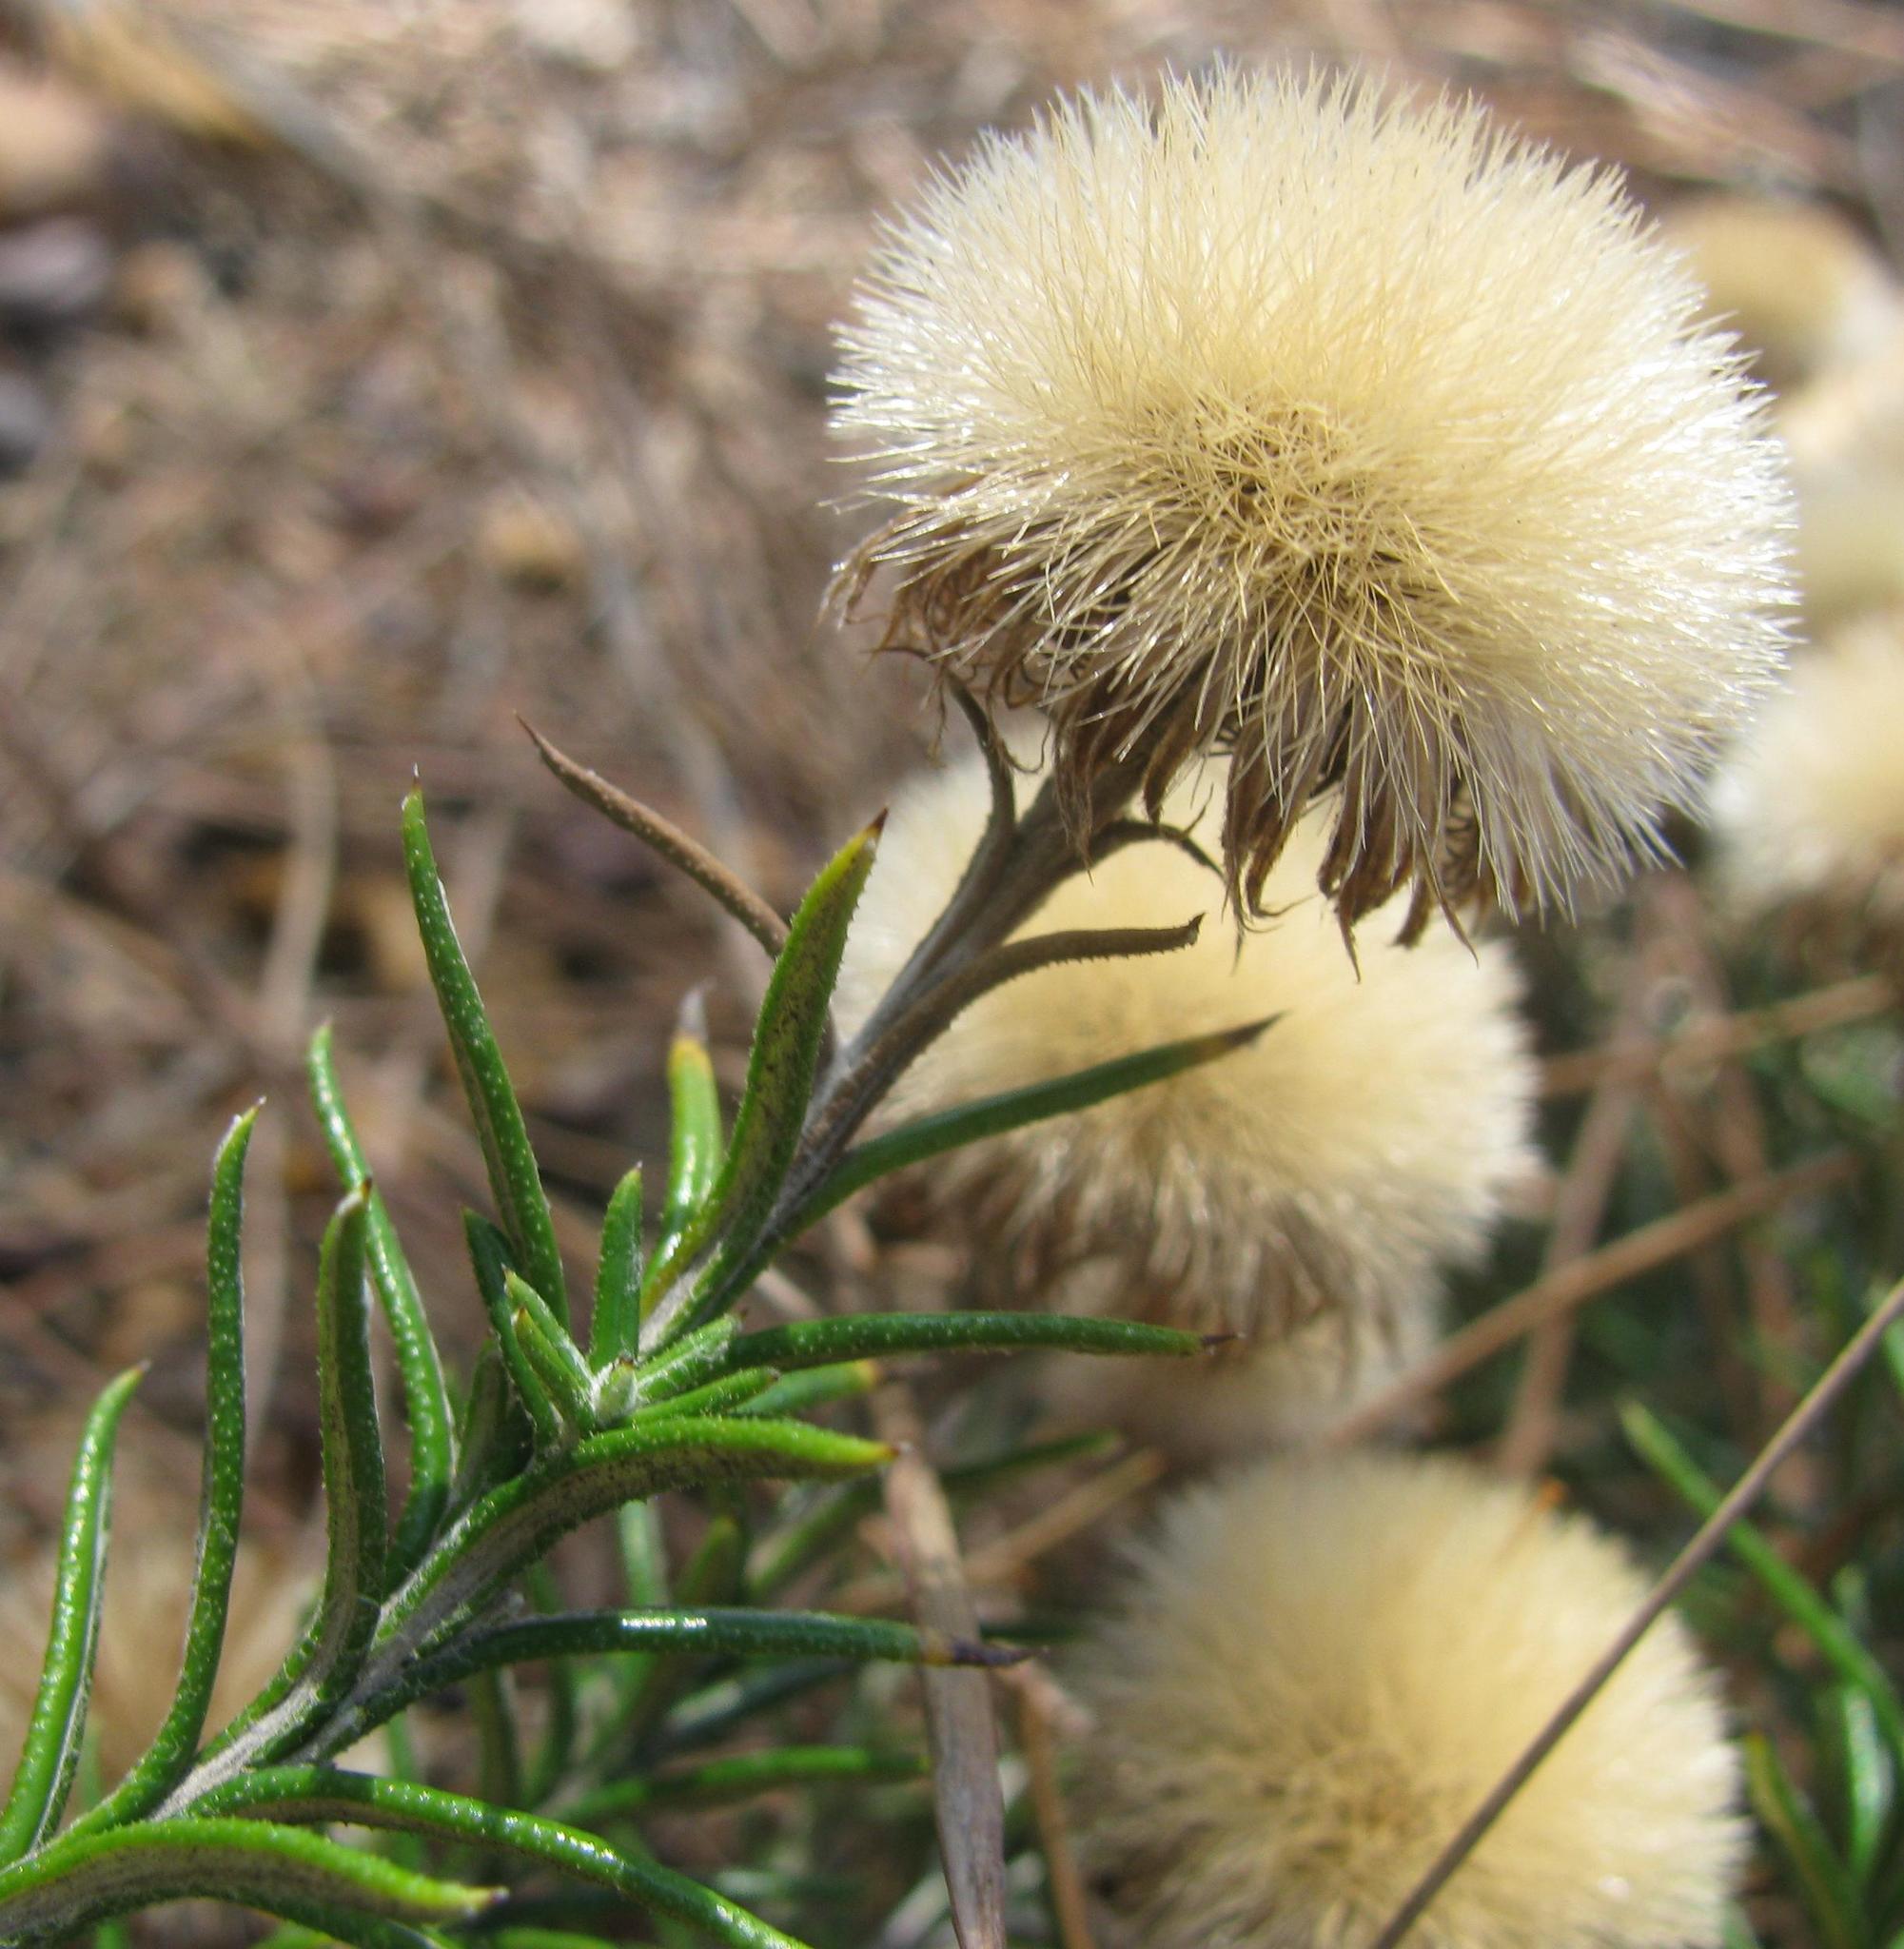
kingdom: Plantae
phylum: Tracheophyta
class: Magnoliopsida
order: Asterales
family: Asteraceae
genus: Athrixia
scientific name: Athrixia capensis
